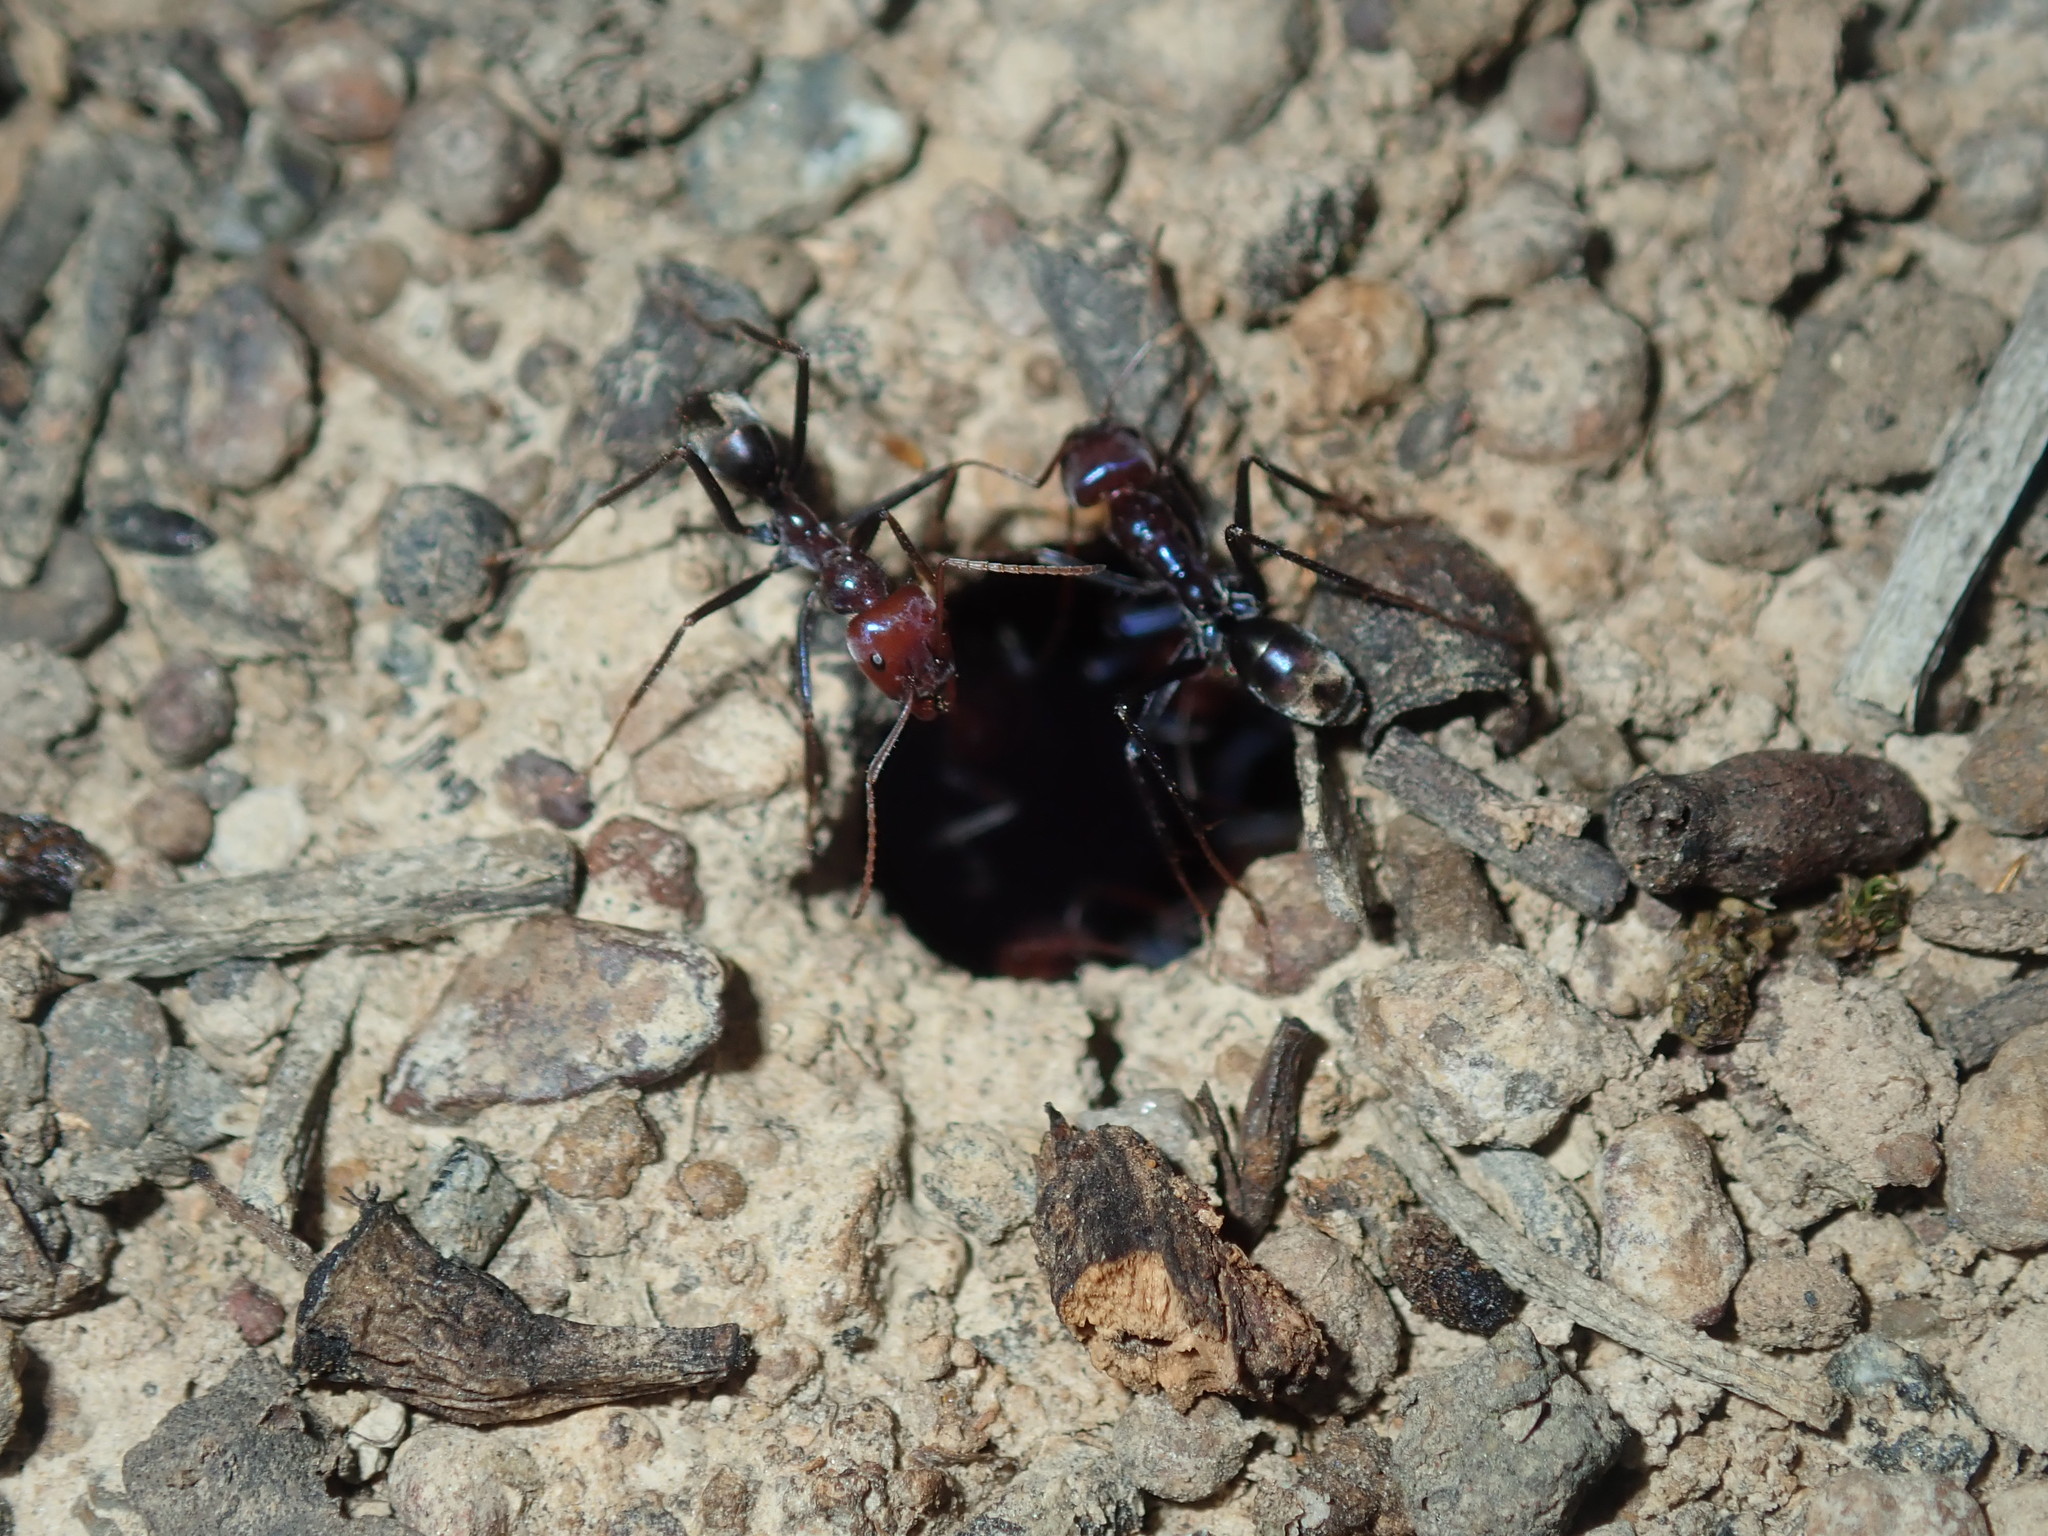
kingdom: Animalia
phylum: Arthropoda
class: Insecta
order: Hymenoptera
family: Formicidae
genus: Iridomyrmex
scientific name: Iridomyrmex purpureus
